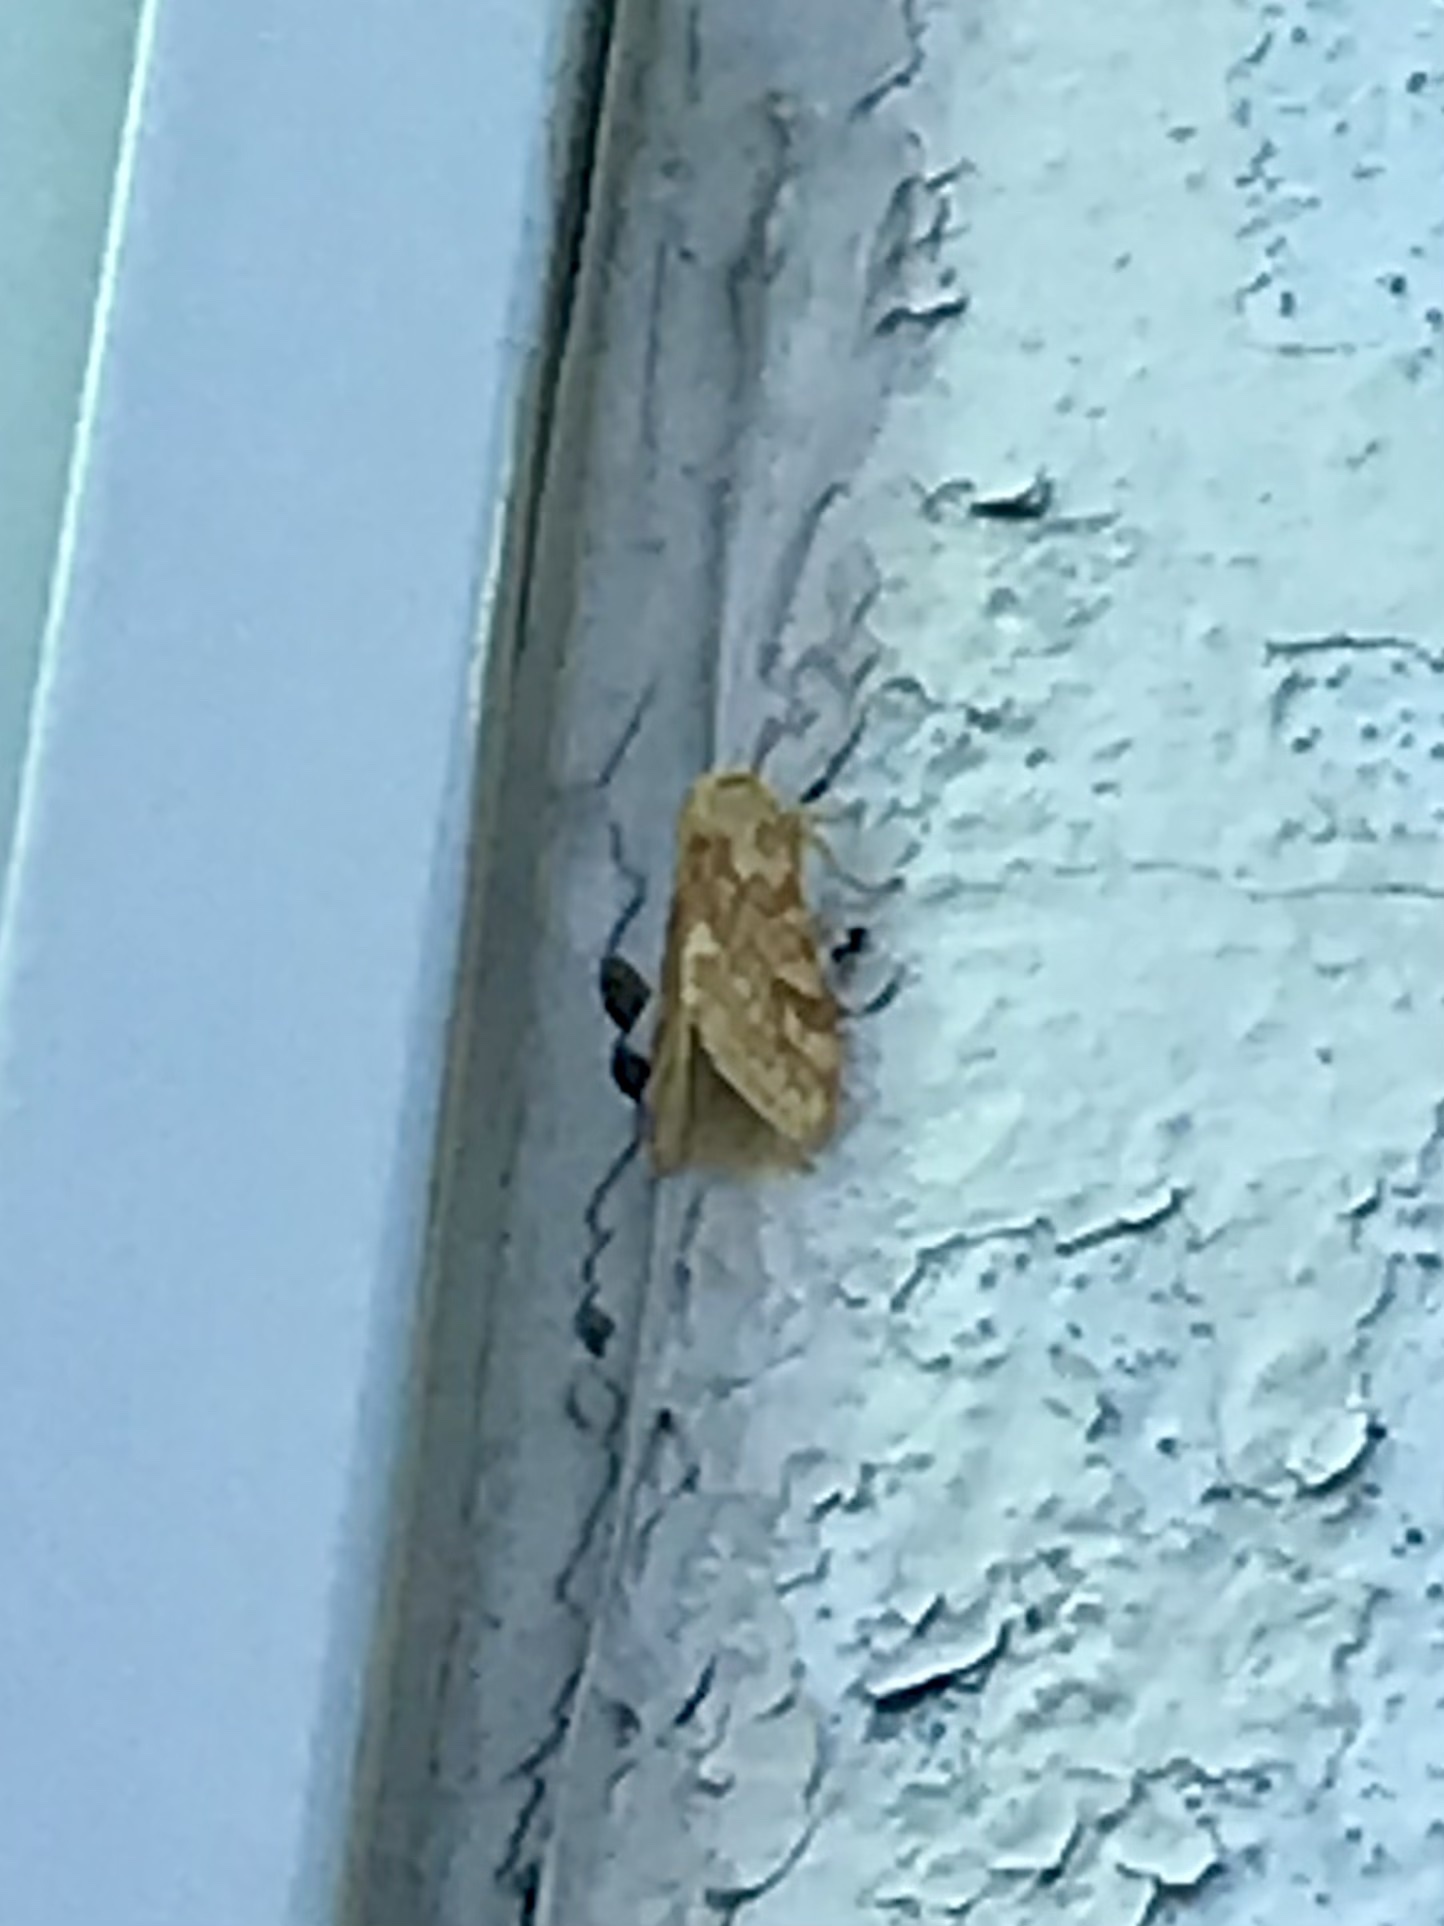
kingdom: Animalia
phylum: Arthropoda
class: Insecta
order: Lepidoptera
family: Erebidae
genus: Lophocampa
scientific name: Lophocampa maculata
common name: Spotted tussock moth
